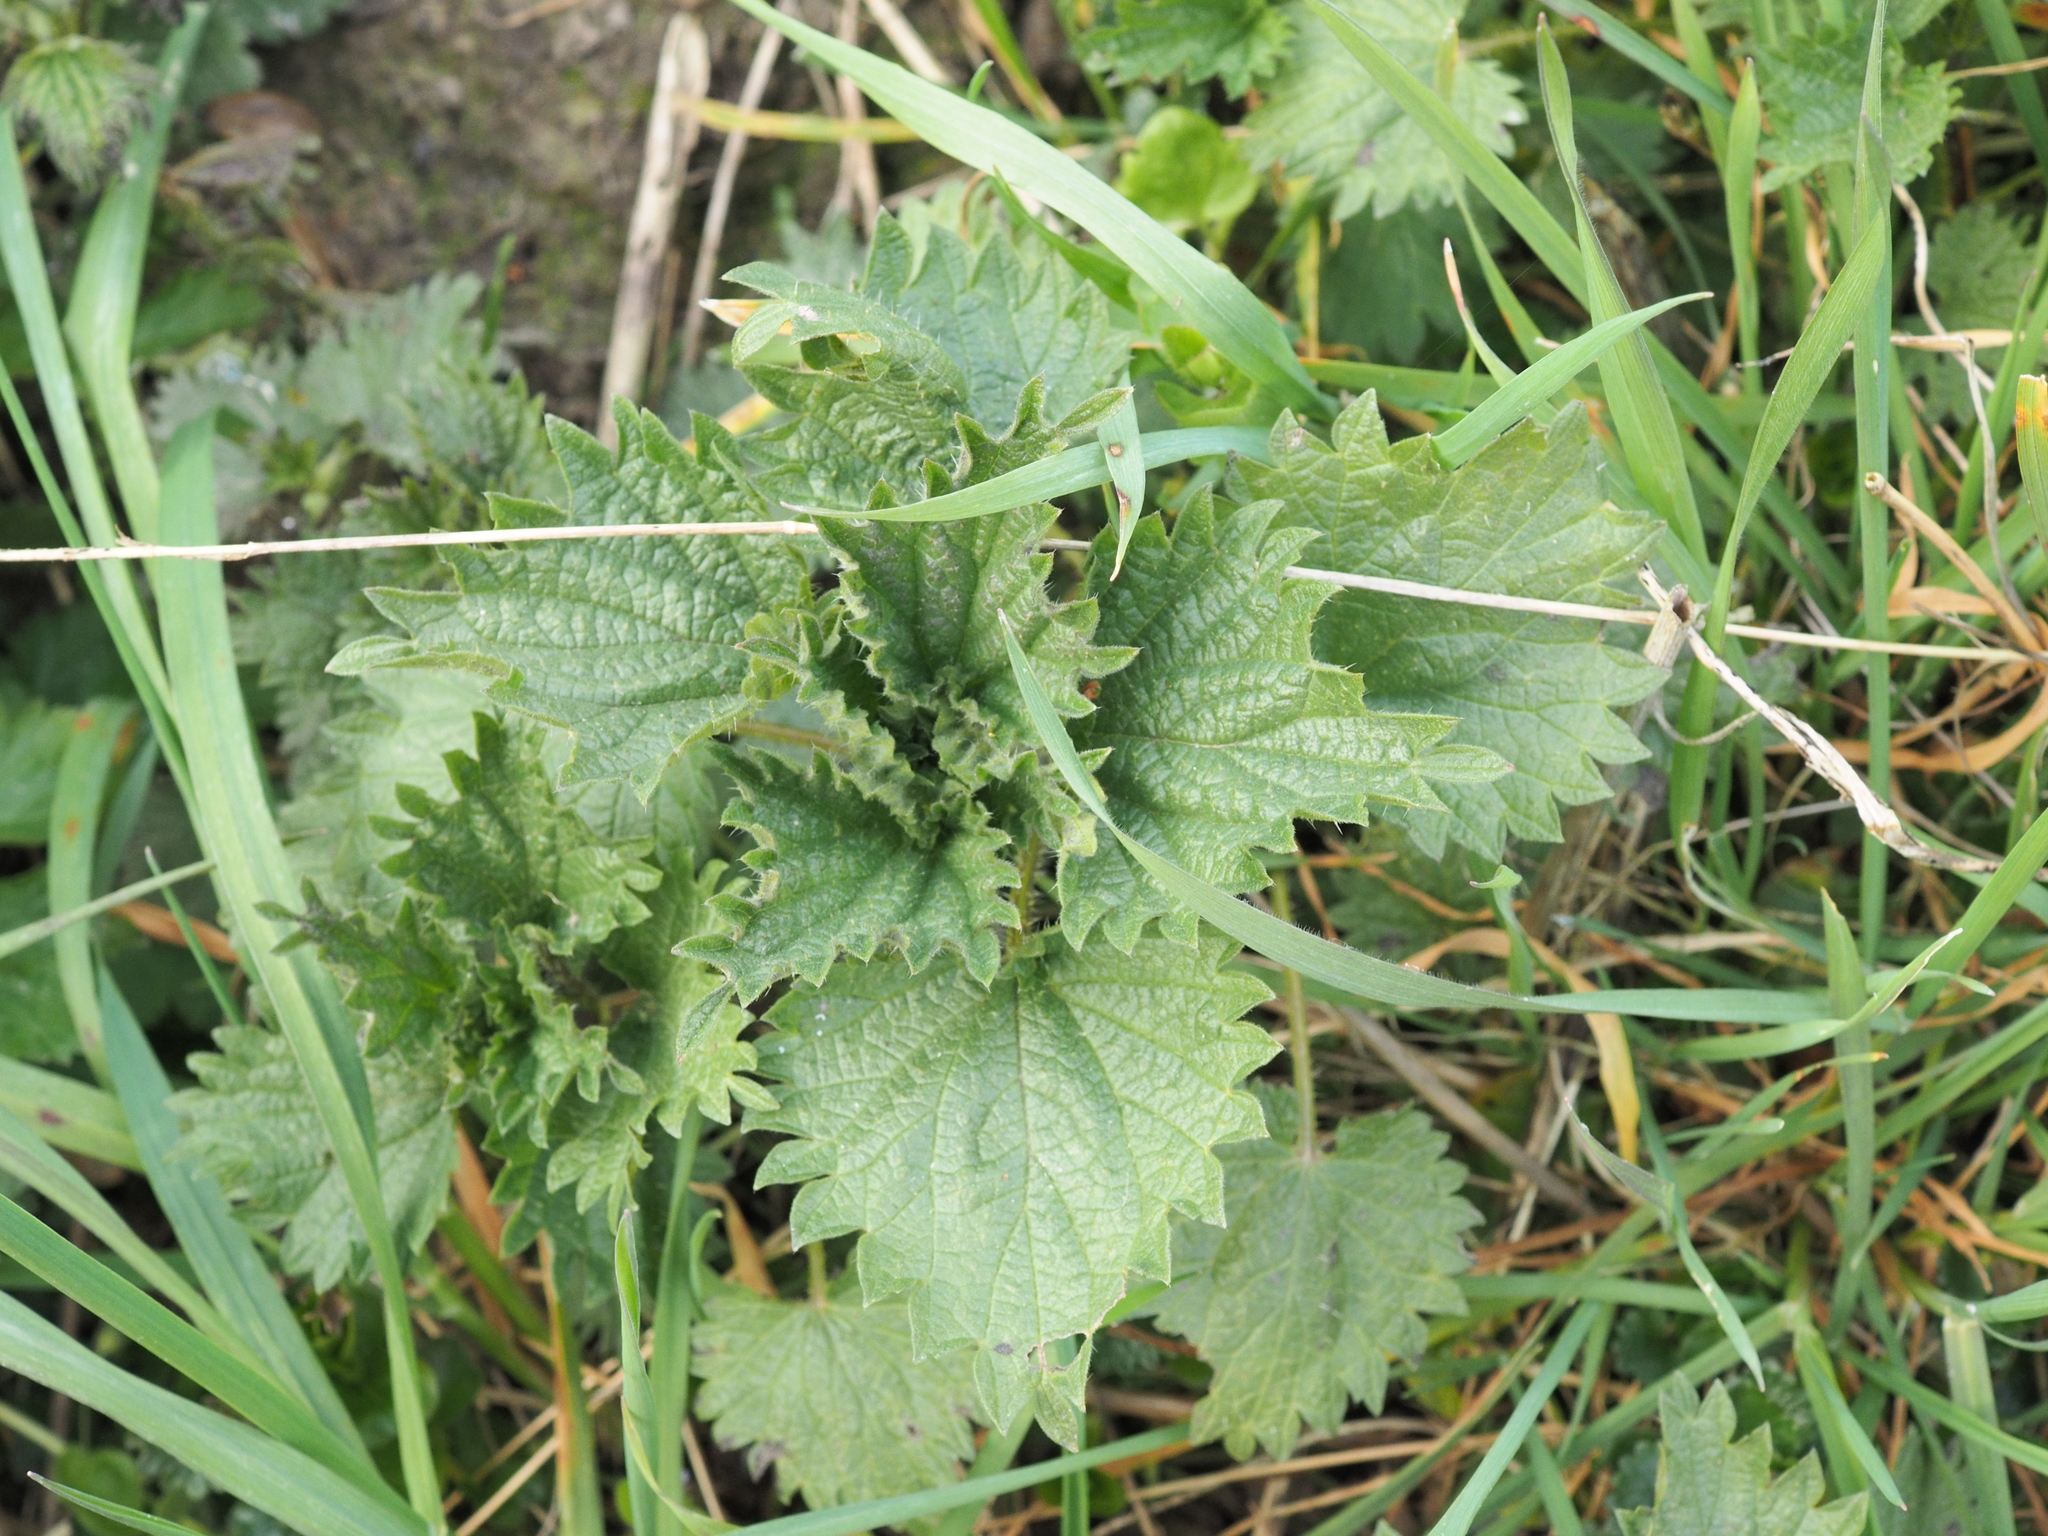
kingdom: Plantae
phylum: Tracheophyta
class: Magnoliopsida
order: Rosales
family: Urticaceae
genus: Urtica
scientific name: Urtica dioica
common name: Common nettle
